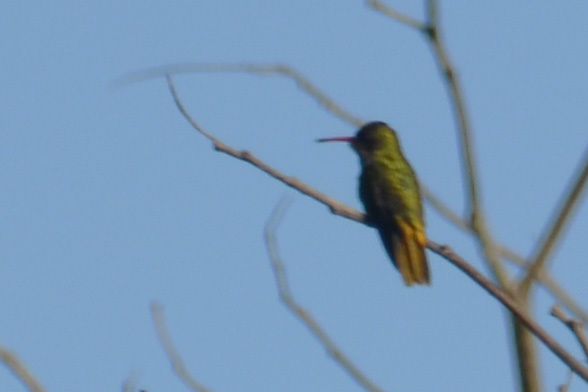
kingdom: Animalia
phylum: Chordata
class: Aves
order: Apodiformes
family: Trochilidae
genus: Hylocharis
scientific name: Hylocharis chrysura
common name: Gilded sapphire
